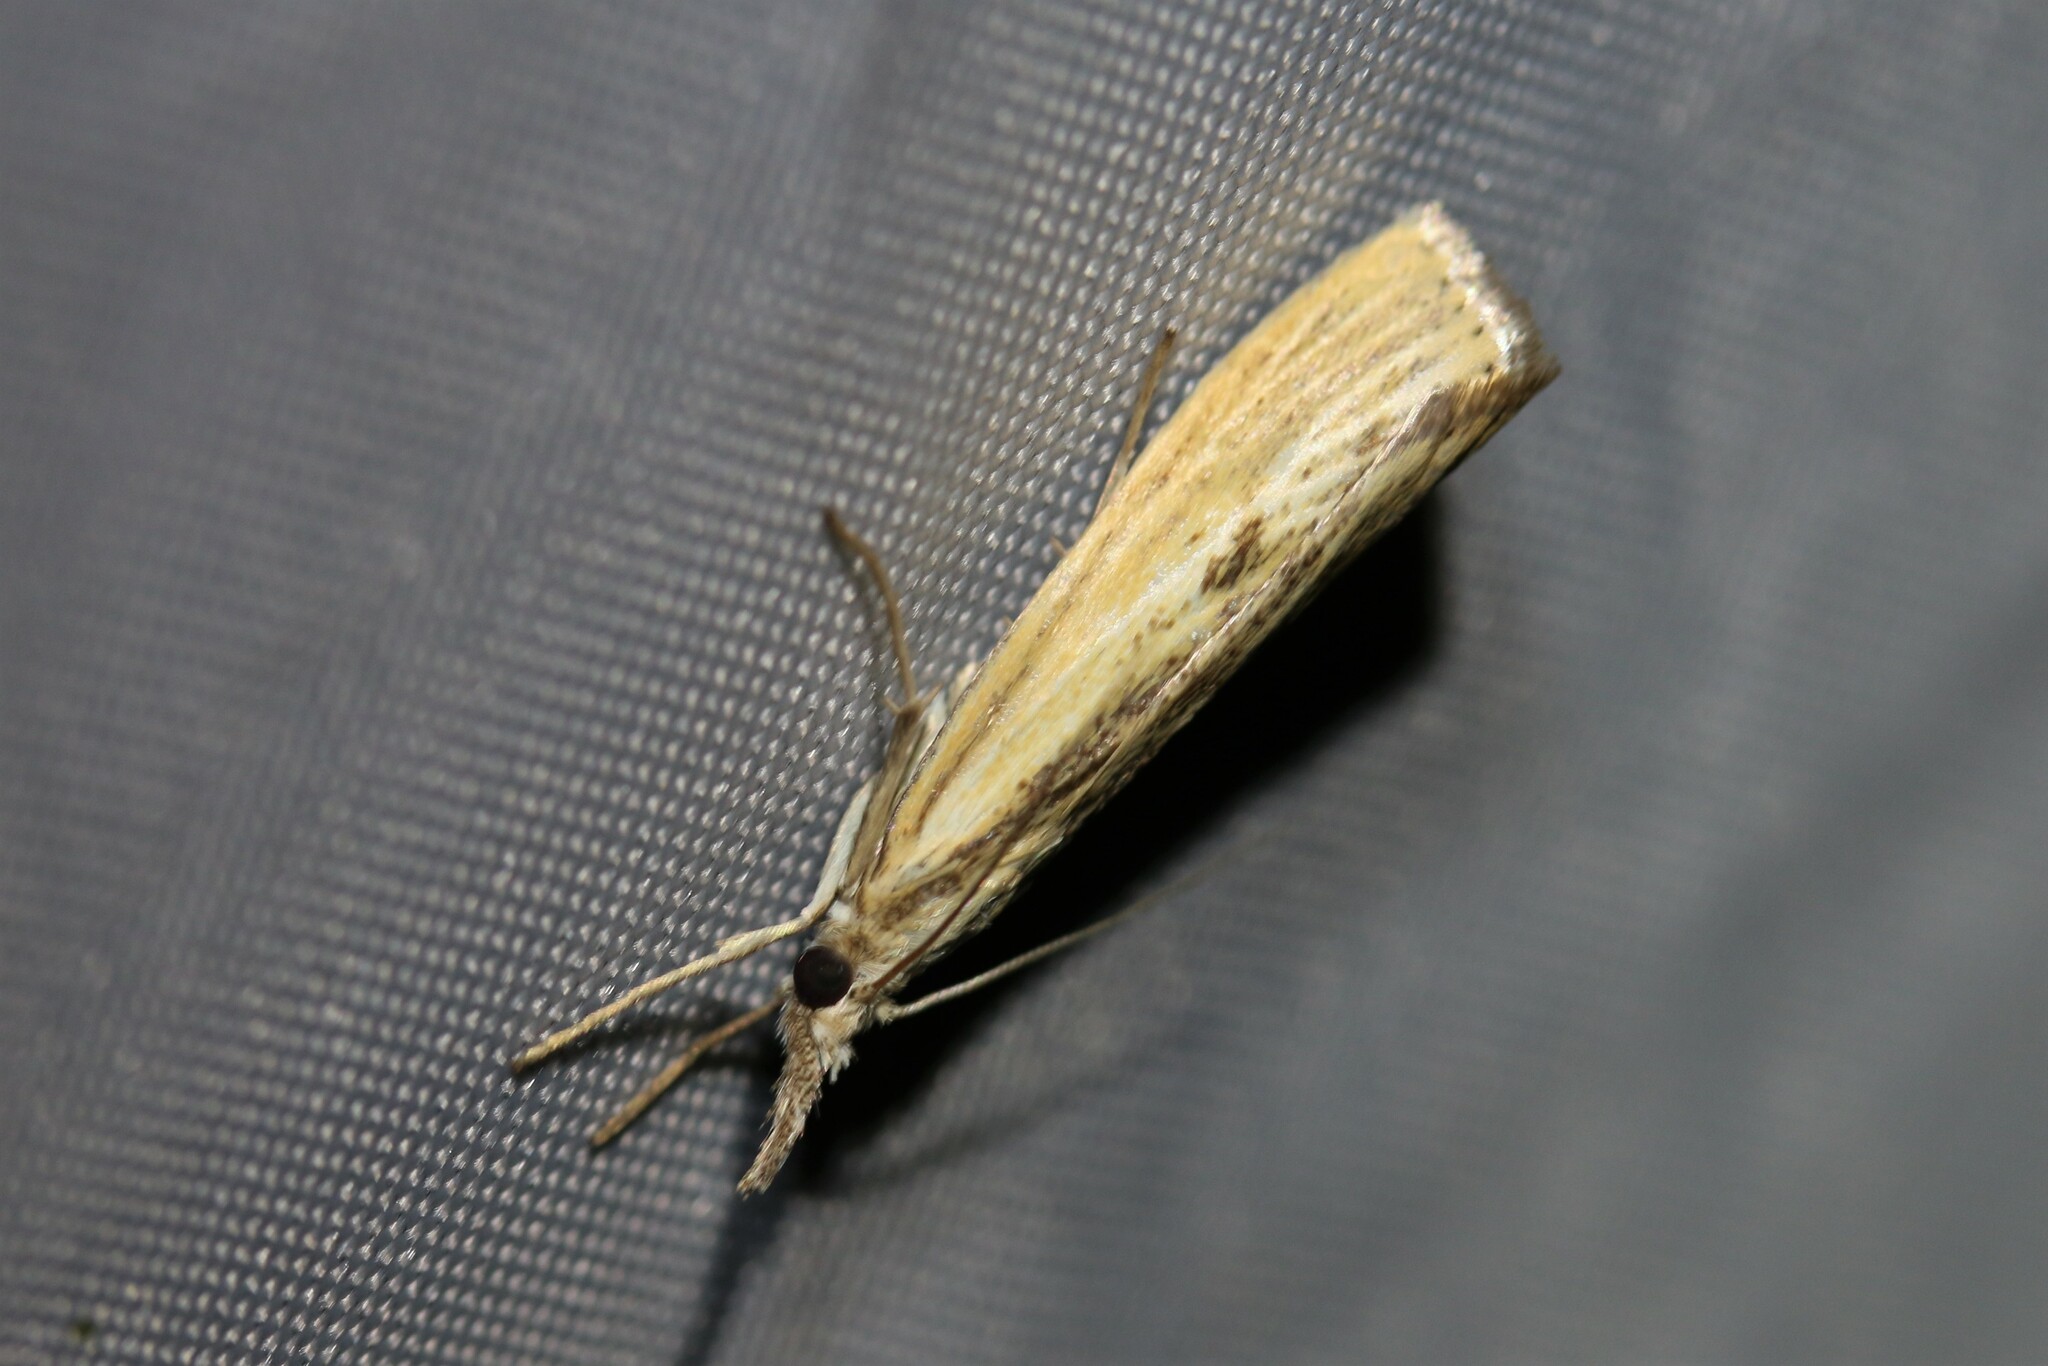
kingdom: Animalia
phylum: Arthropoda
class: Insecta
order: Lepidoptera
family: Crambidae
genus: Agriphila
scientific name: Agriphila inquinatella
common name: Barred grass-veneer
